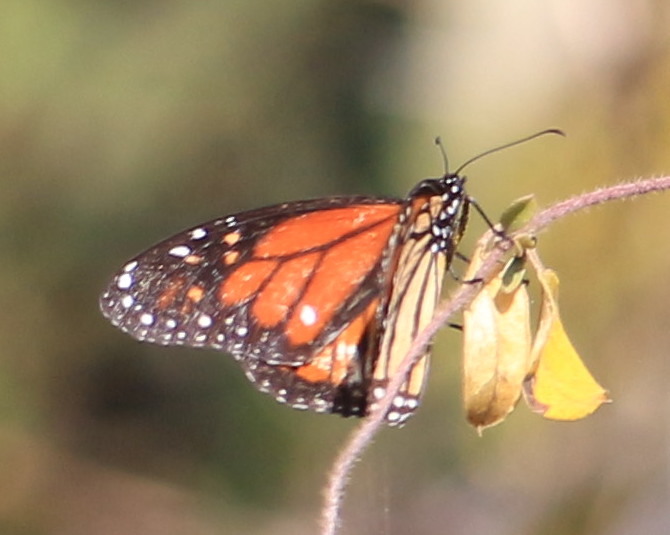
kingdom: Animalia
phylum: Arthropoda
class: Insecta
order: Lepidoptera
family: Nymphalidae
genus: Danaus
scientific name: Danaus plexippus
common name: Monarch
